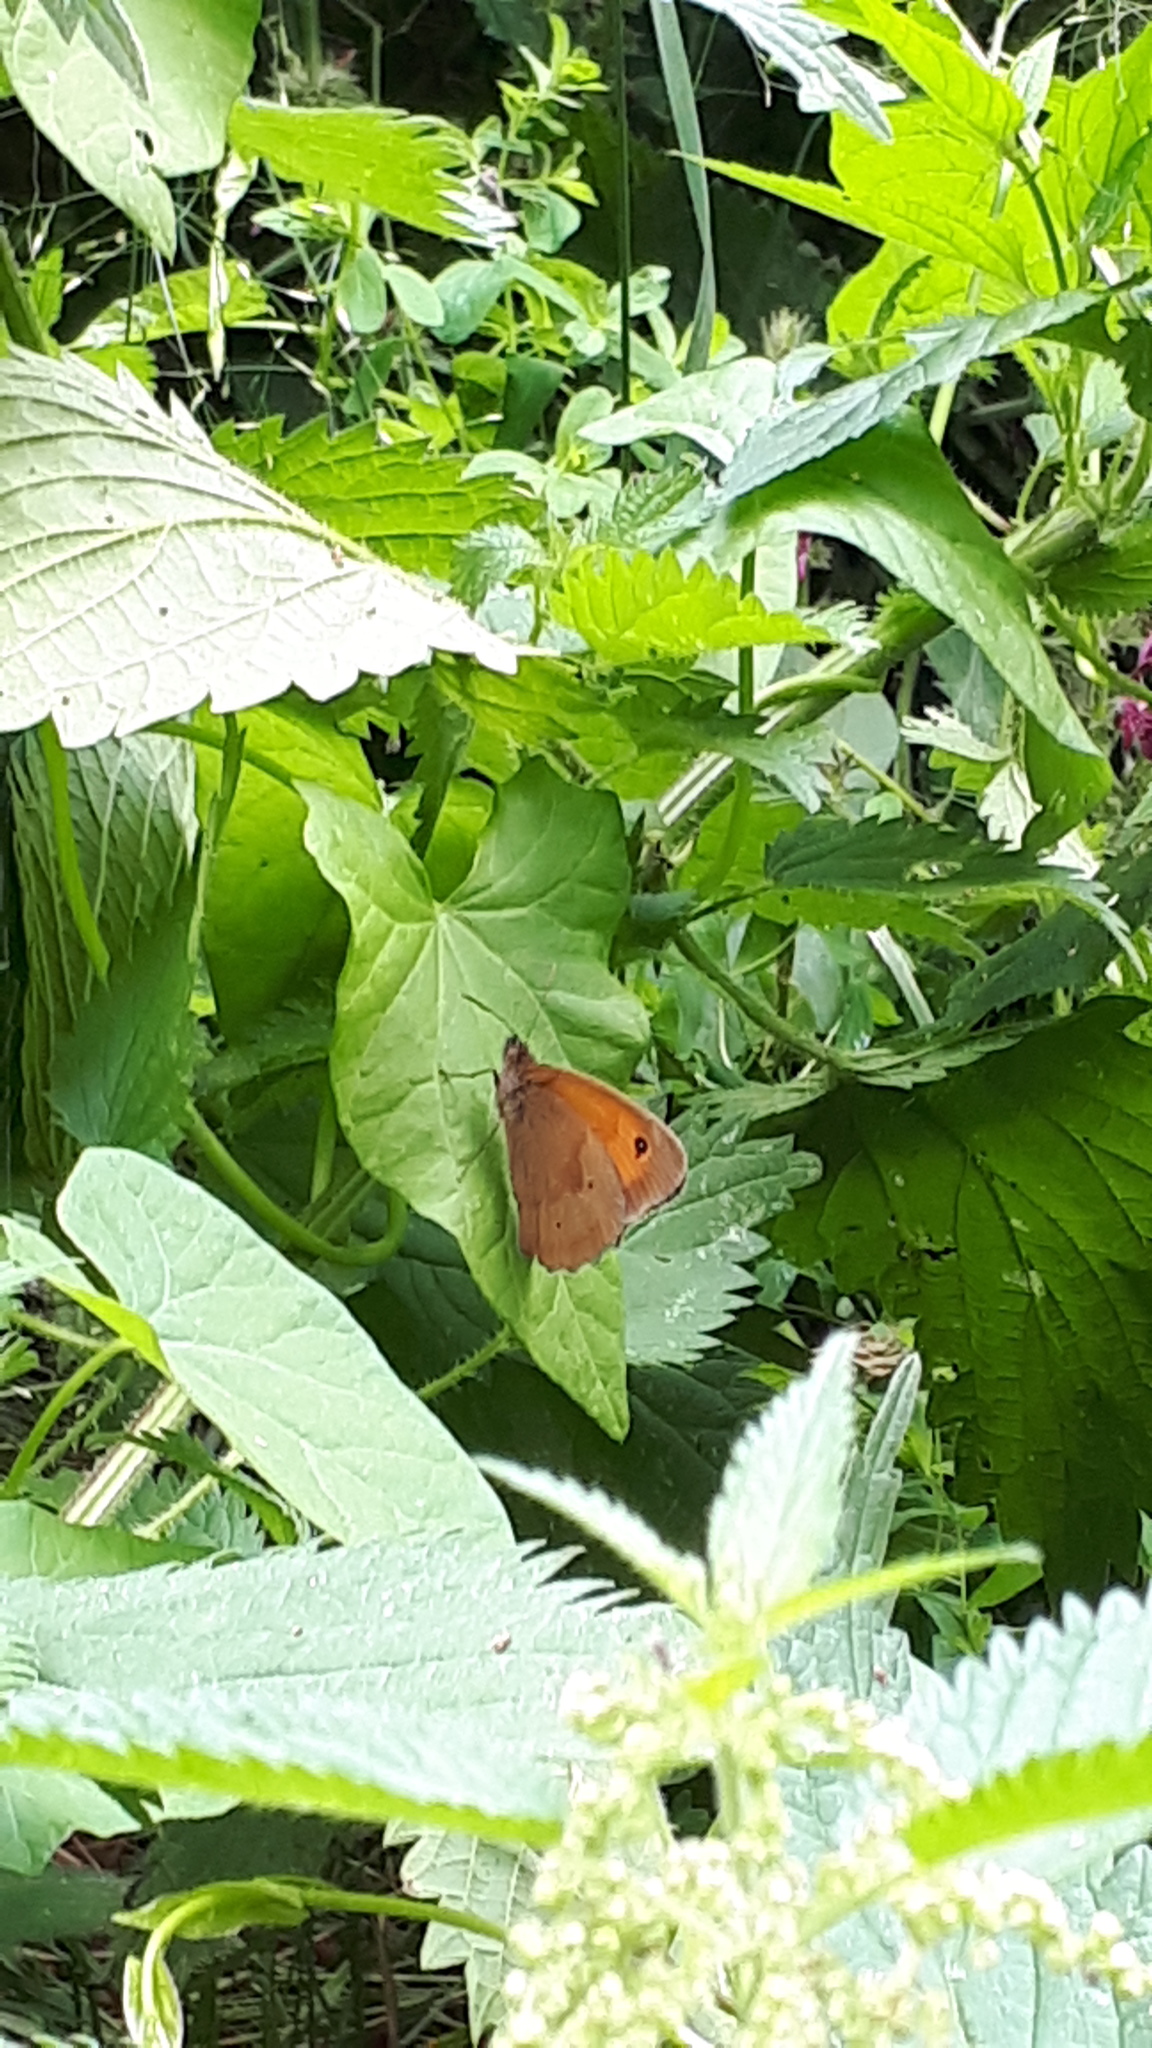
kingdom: Animalia
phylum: Arthropoda
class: Insecta
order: Lepidoptera
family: Nymphalidae
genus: Maniola
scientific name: Maniola jurtina
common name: Meadow brown
